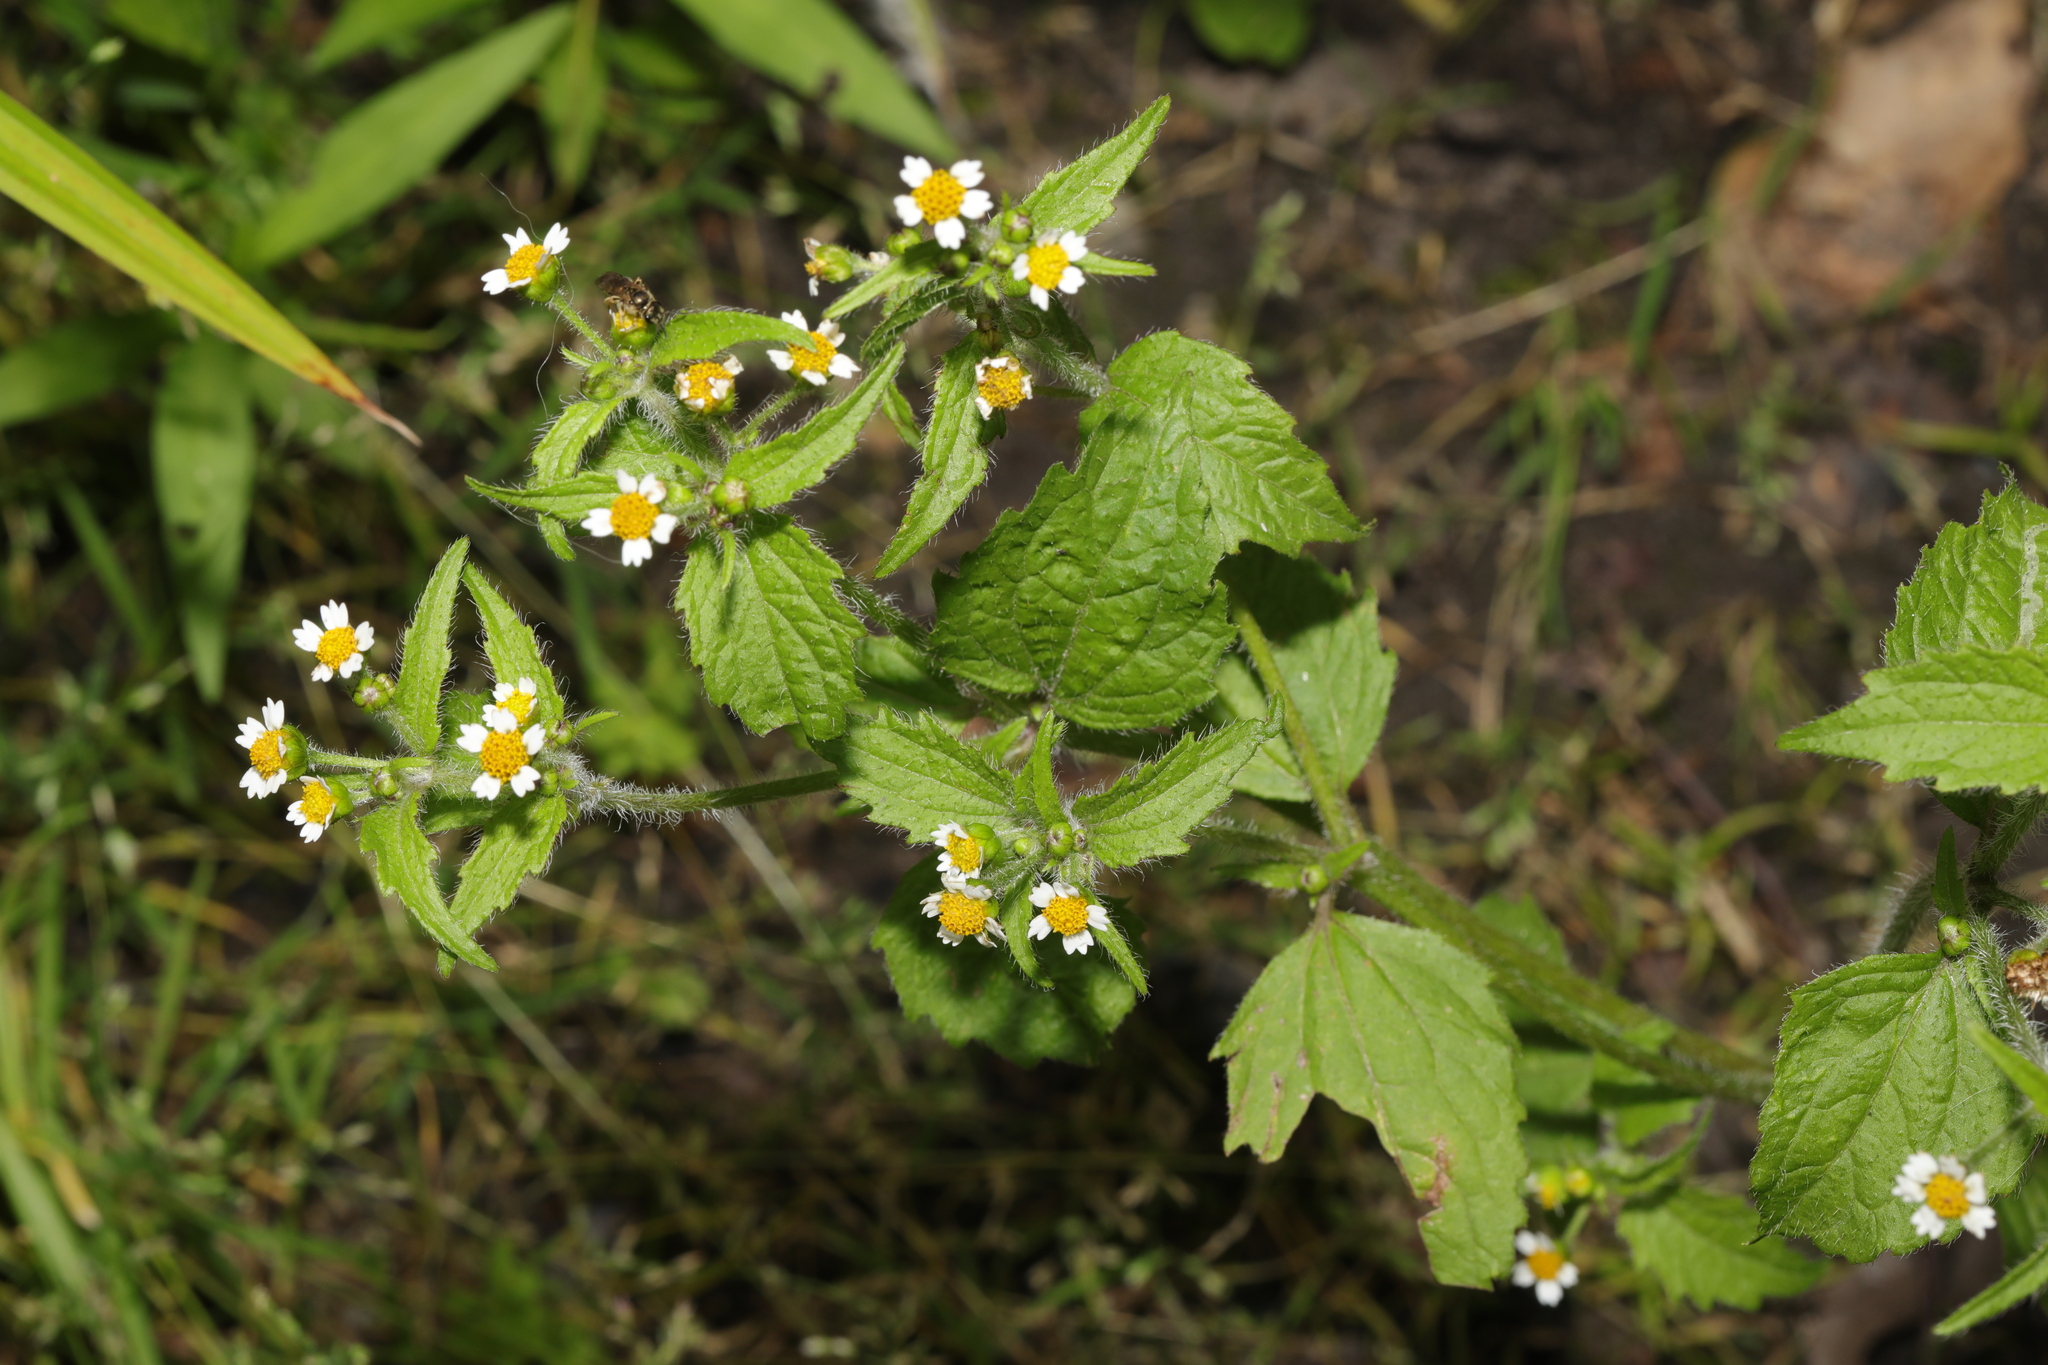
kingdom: Plantae
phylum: Tracheophyta
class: Magnoliopsida
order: Asterales
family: Asteraceae
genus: Galinsoga
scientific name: Galinsoga quadriradiata
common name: Shaggy soldier
